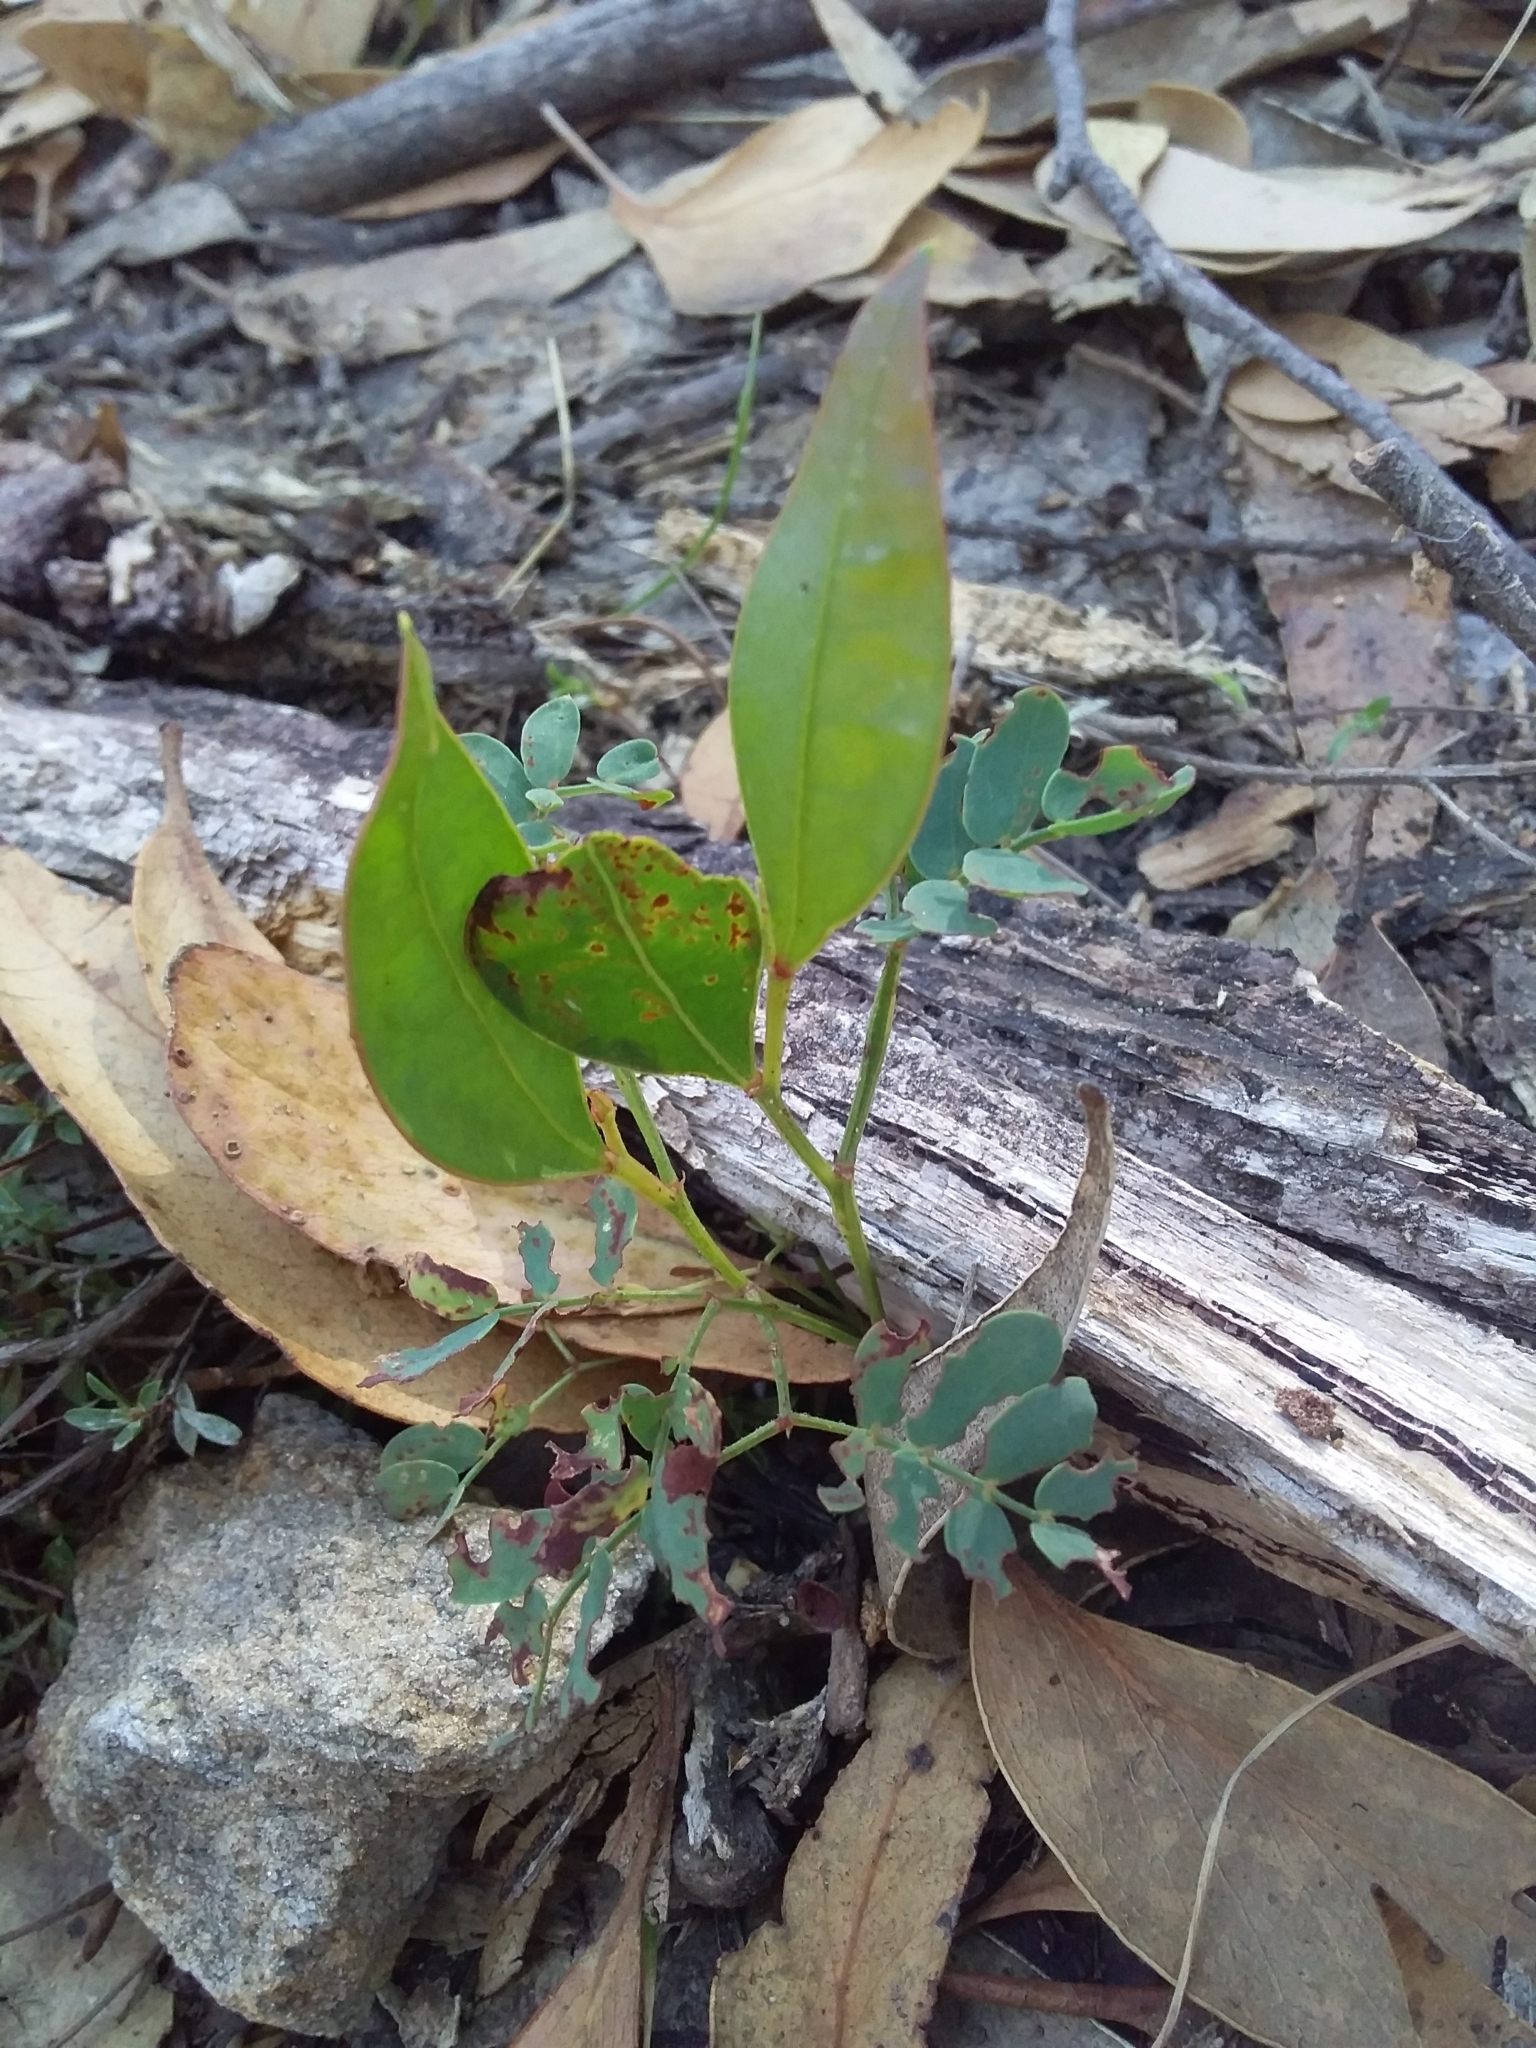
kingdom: Plantae
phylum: Tracheophyta
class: Magnoliopsida
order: Fabales
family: Fabaceae
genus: Acacia
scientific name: Acacia myrtifolia
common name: Myrtle wattle
